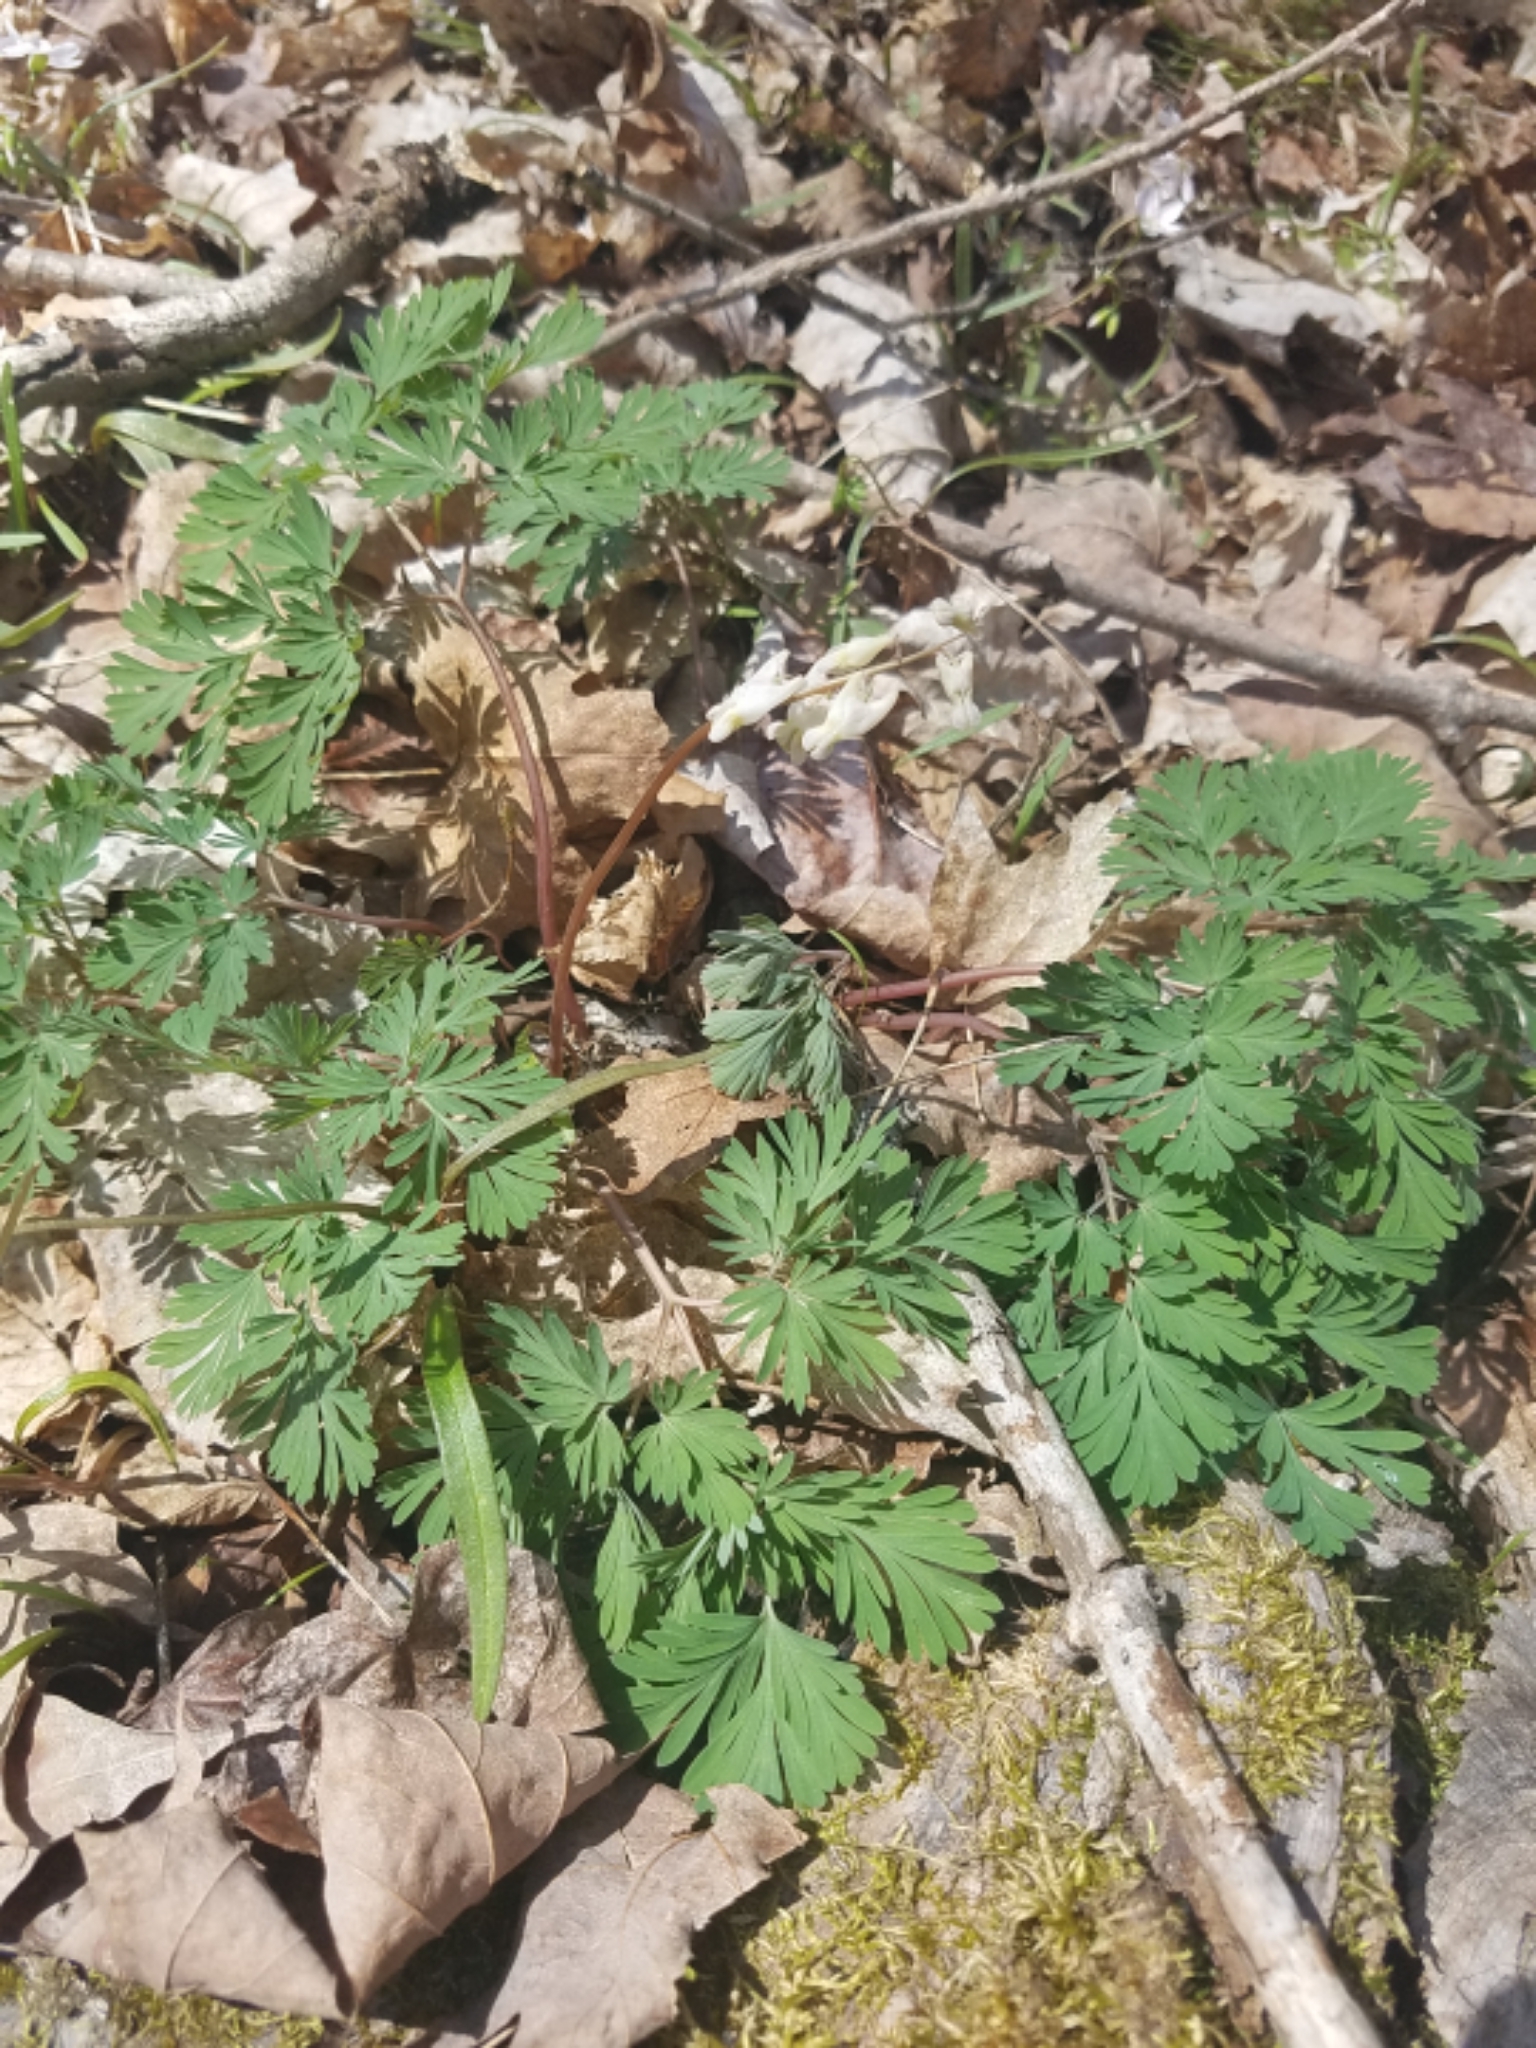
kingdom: Plantae
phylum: Tracheophyta
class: Magnoliopsida
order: Ranunculales
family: Papaveraceae
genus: Dicentra
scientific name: Dicentra cucullaria
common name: Dutchman's breeches
